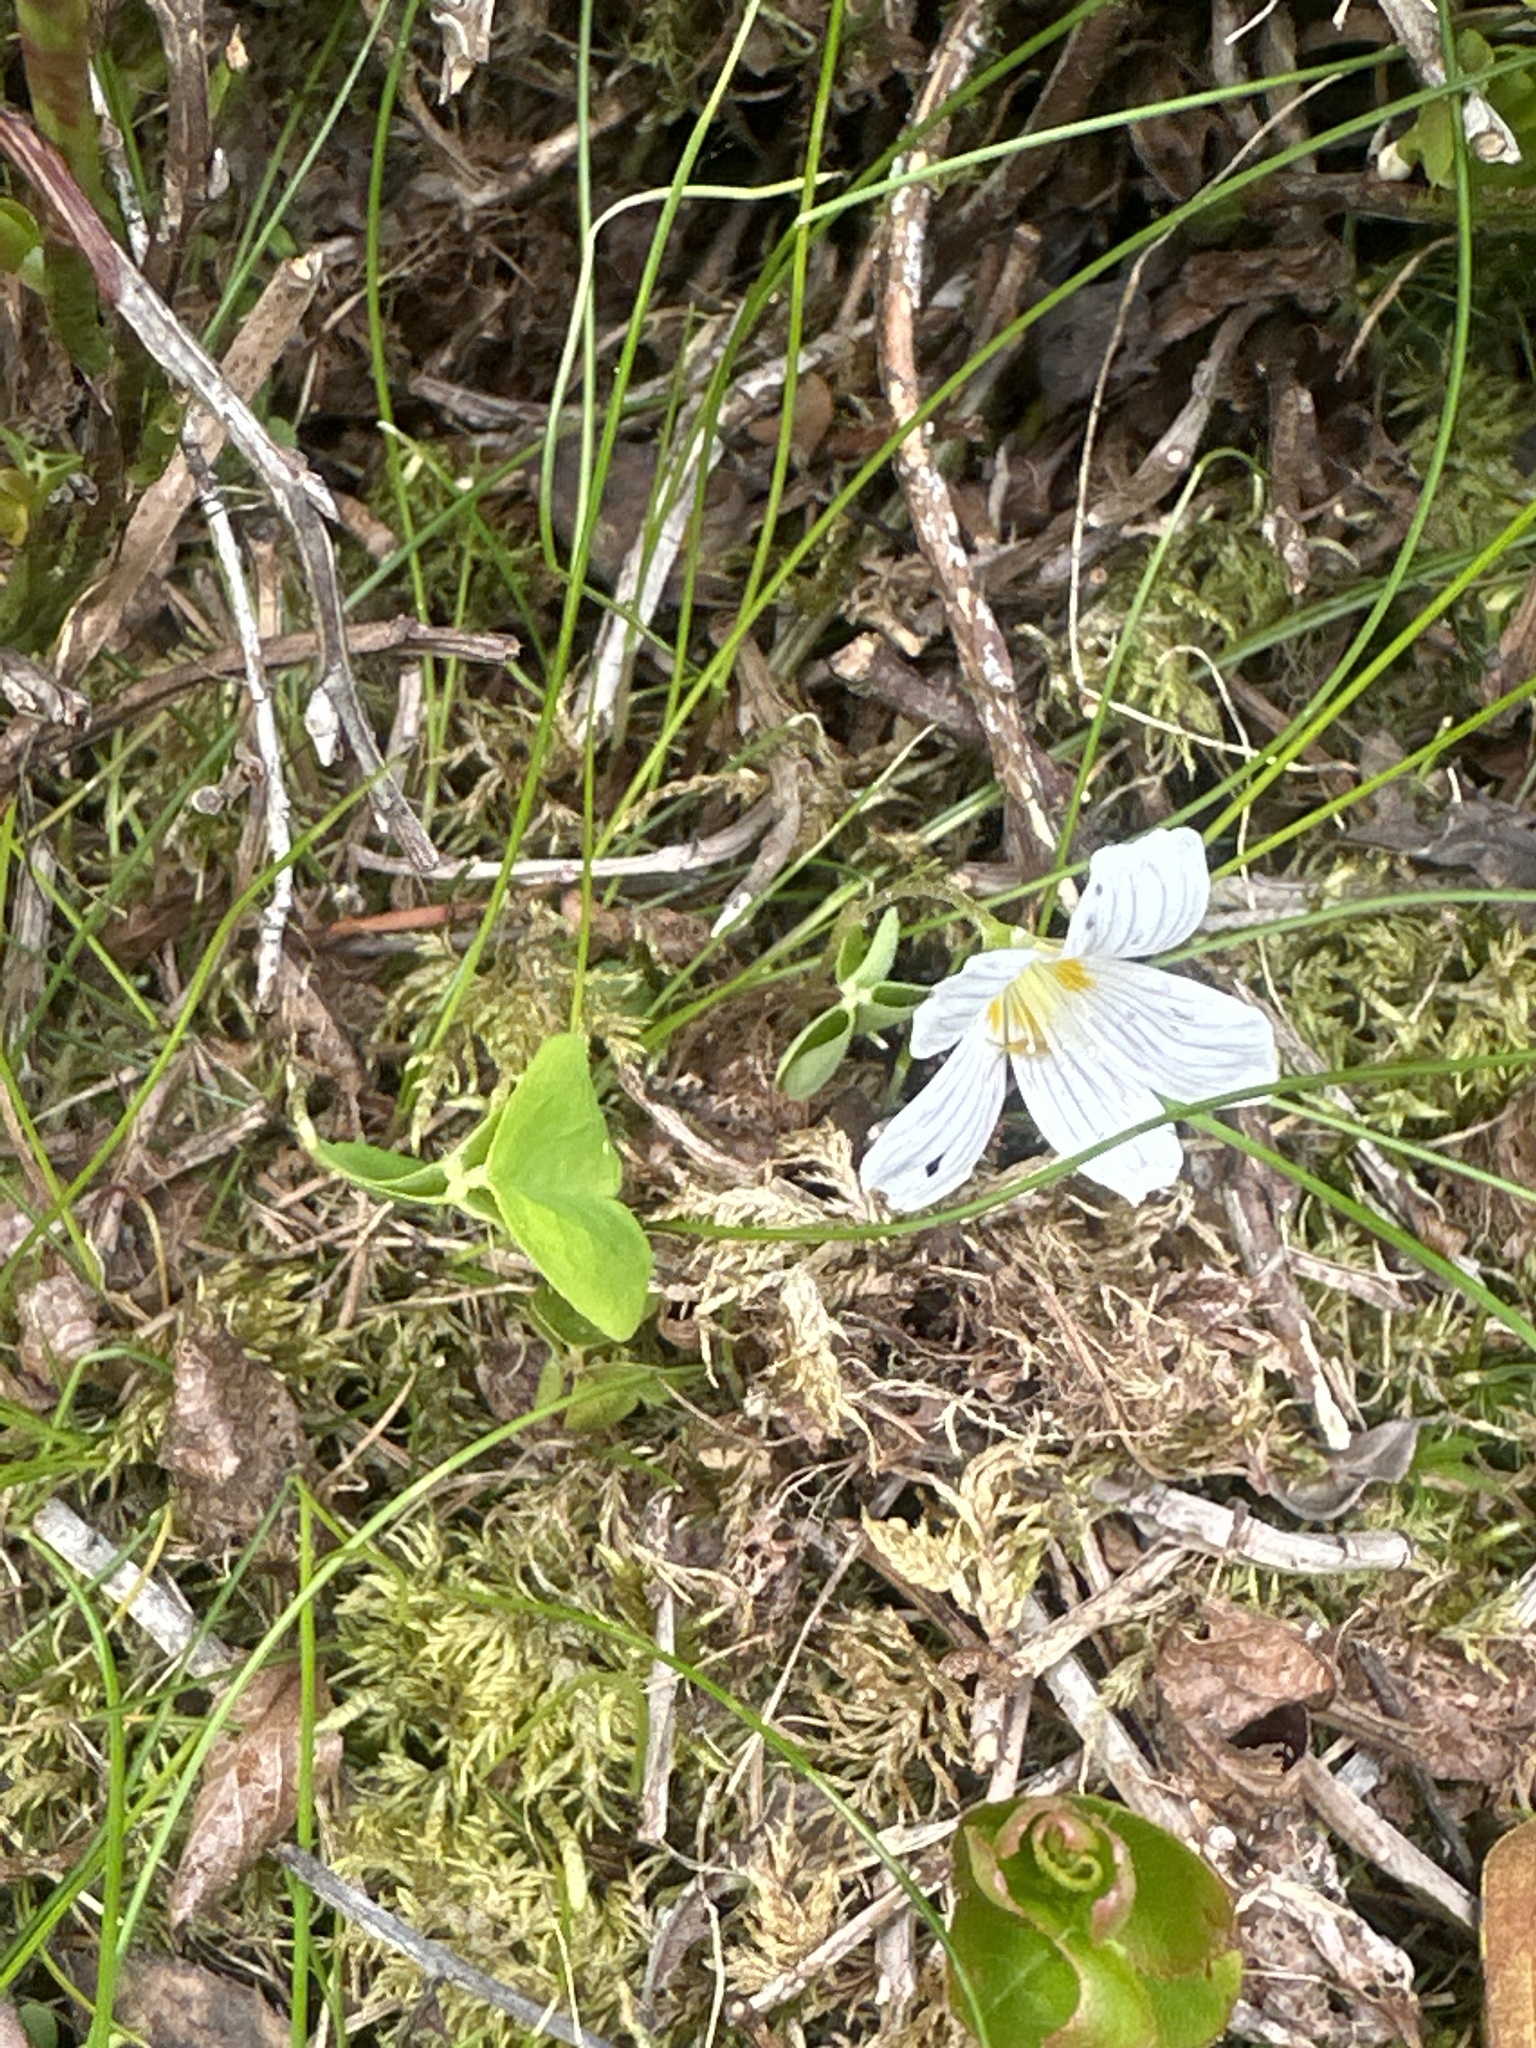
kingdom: Plantae
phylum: Tracheophyta
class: Magnoliopsida
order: Oxalidales
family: Oxalidaceae
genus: Oxalis
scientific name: Oxalis acetosella
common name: Wood-sorrel
